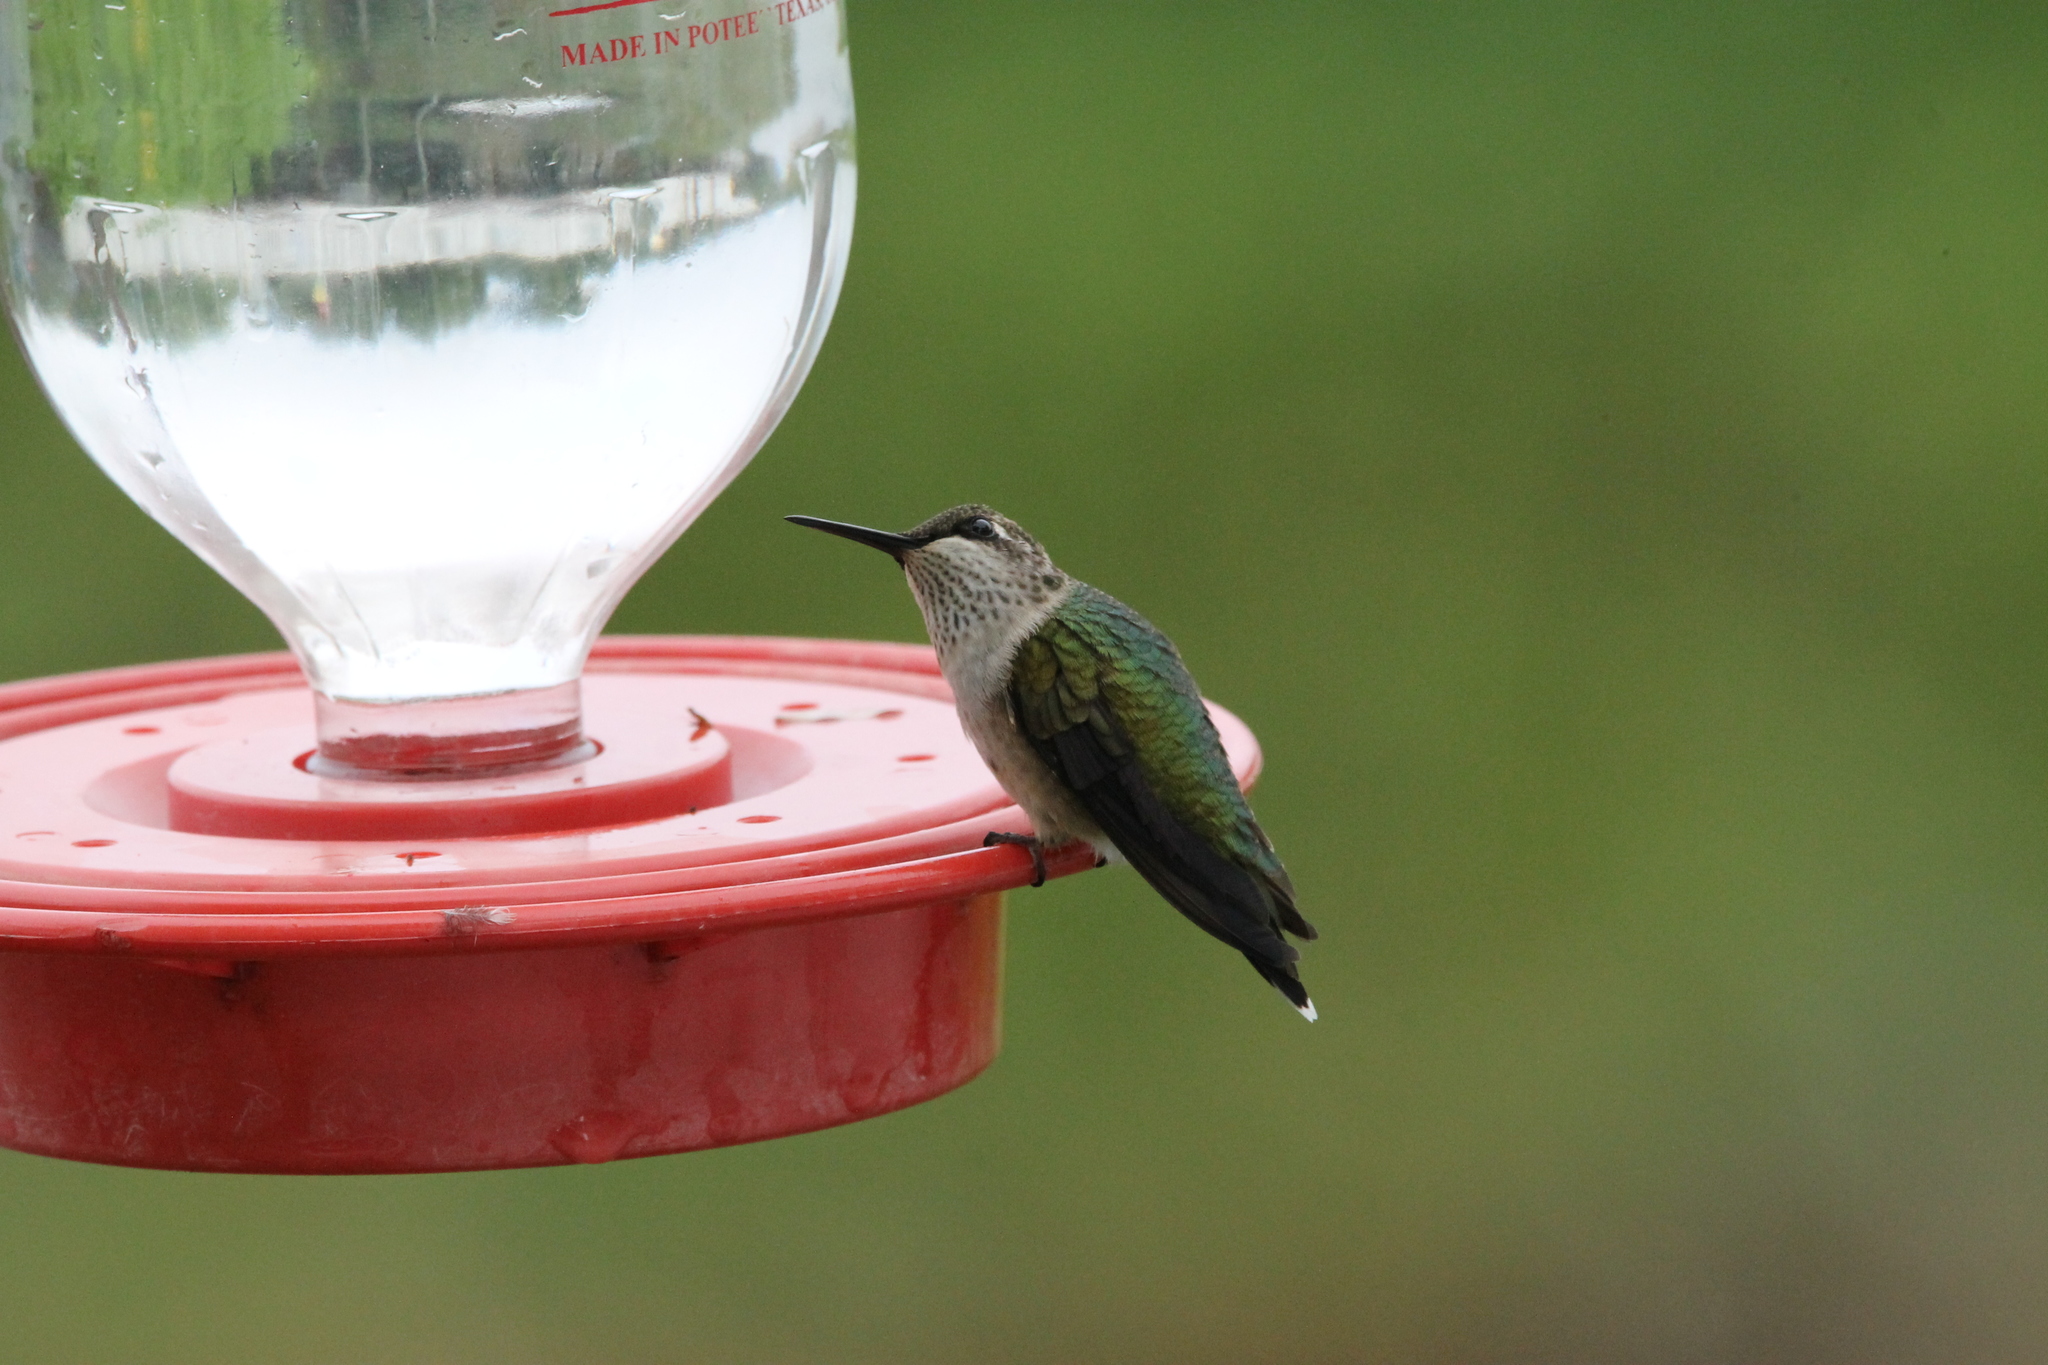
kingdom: Animalia
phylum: Chordata
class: Aves
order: Apodiformes
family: Trochilidae
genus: Archilochus
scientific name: Archilochus colubris
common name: Ruby-throated hummingbird
